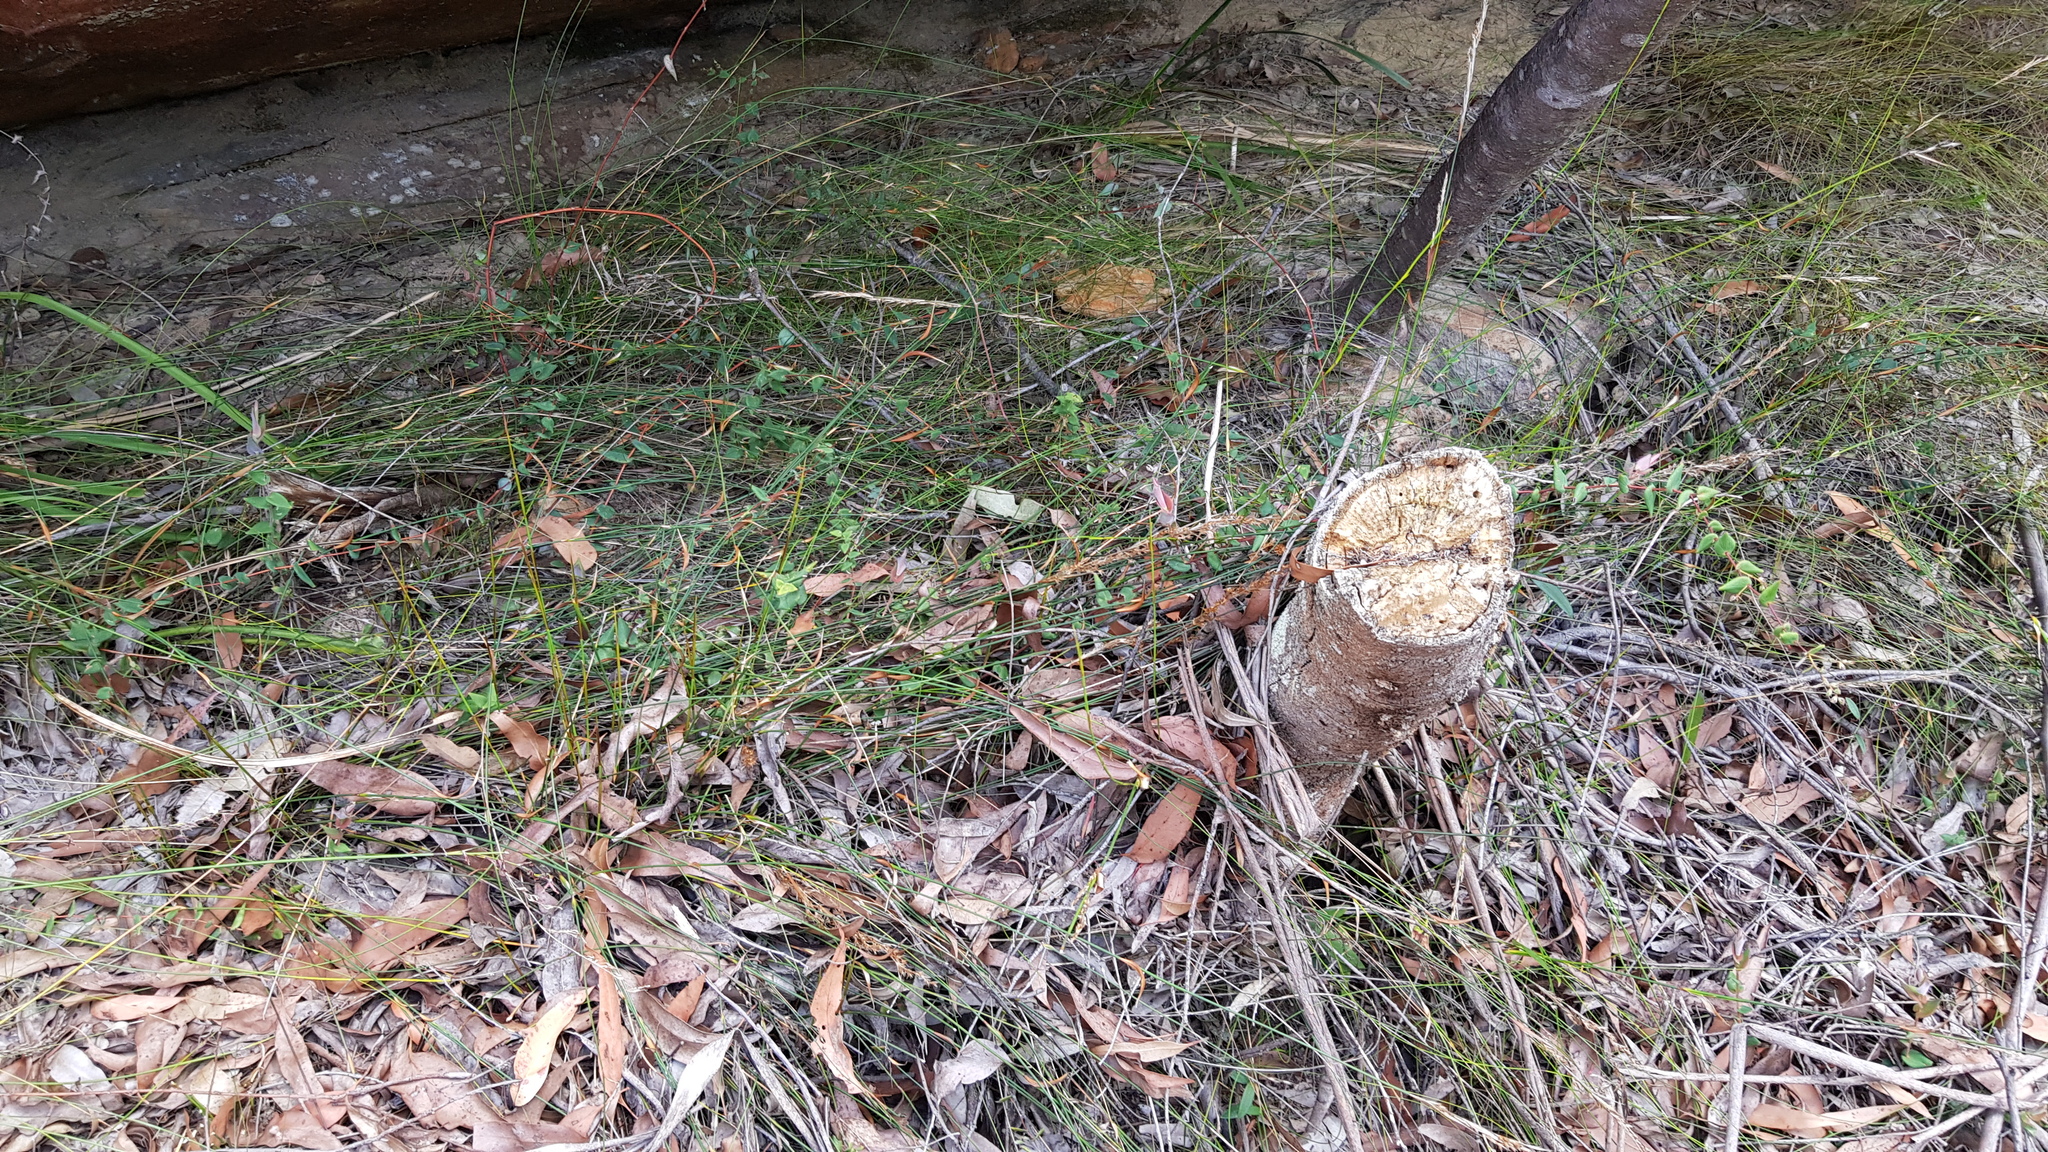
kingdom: Plantae
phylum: Tracheophyta
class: Magnoliopsida
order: Ericales
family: Ericaceae
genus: Leucopogon
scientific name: Leucopogon amplexicaulis
